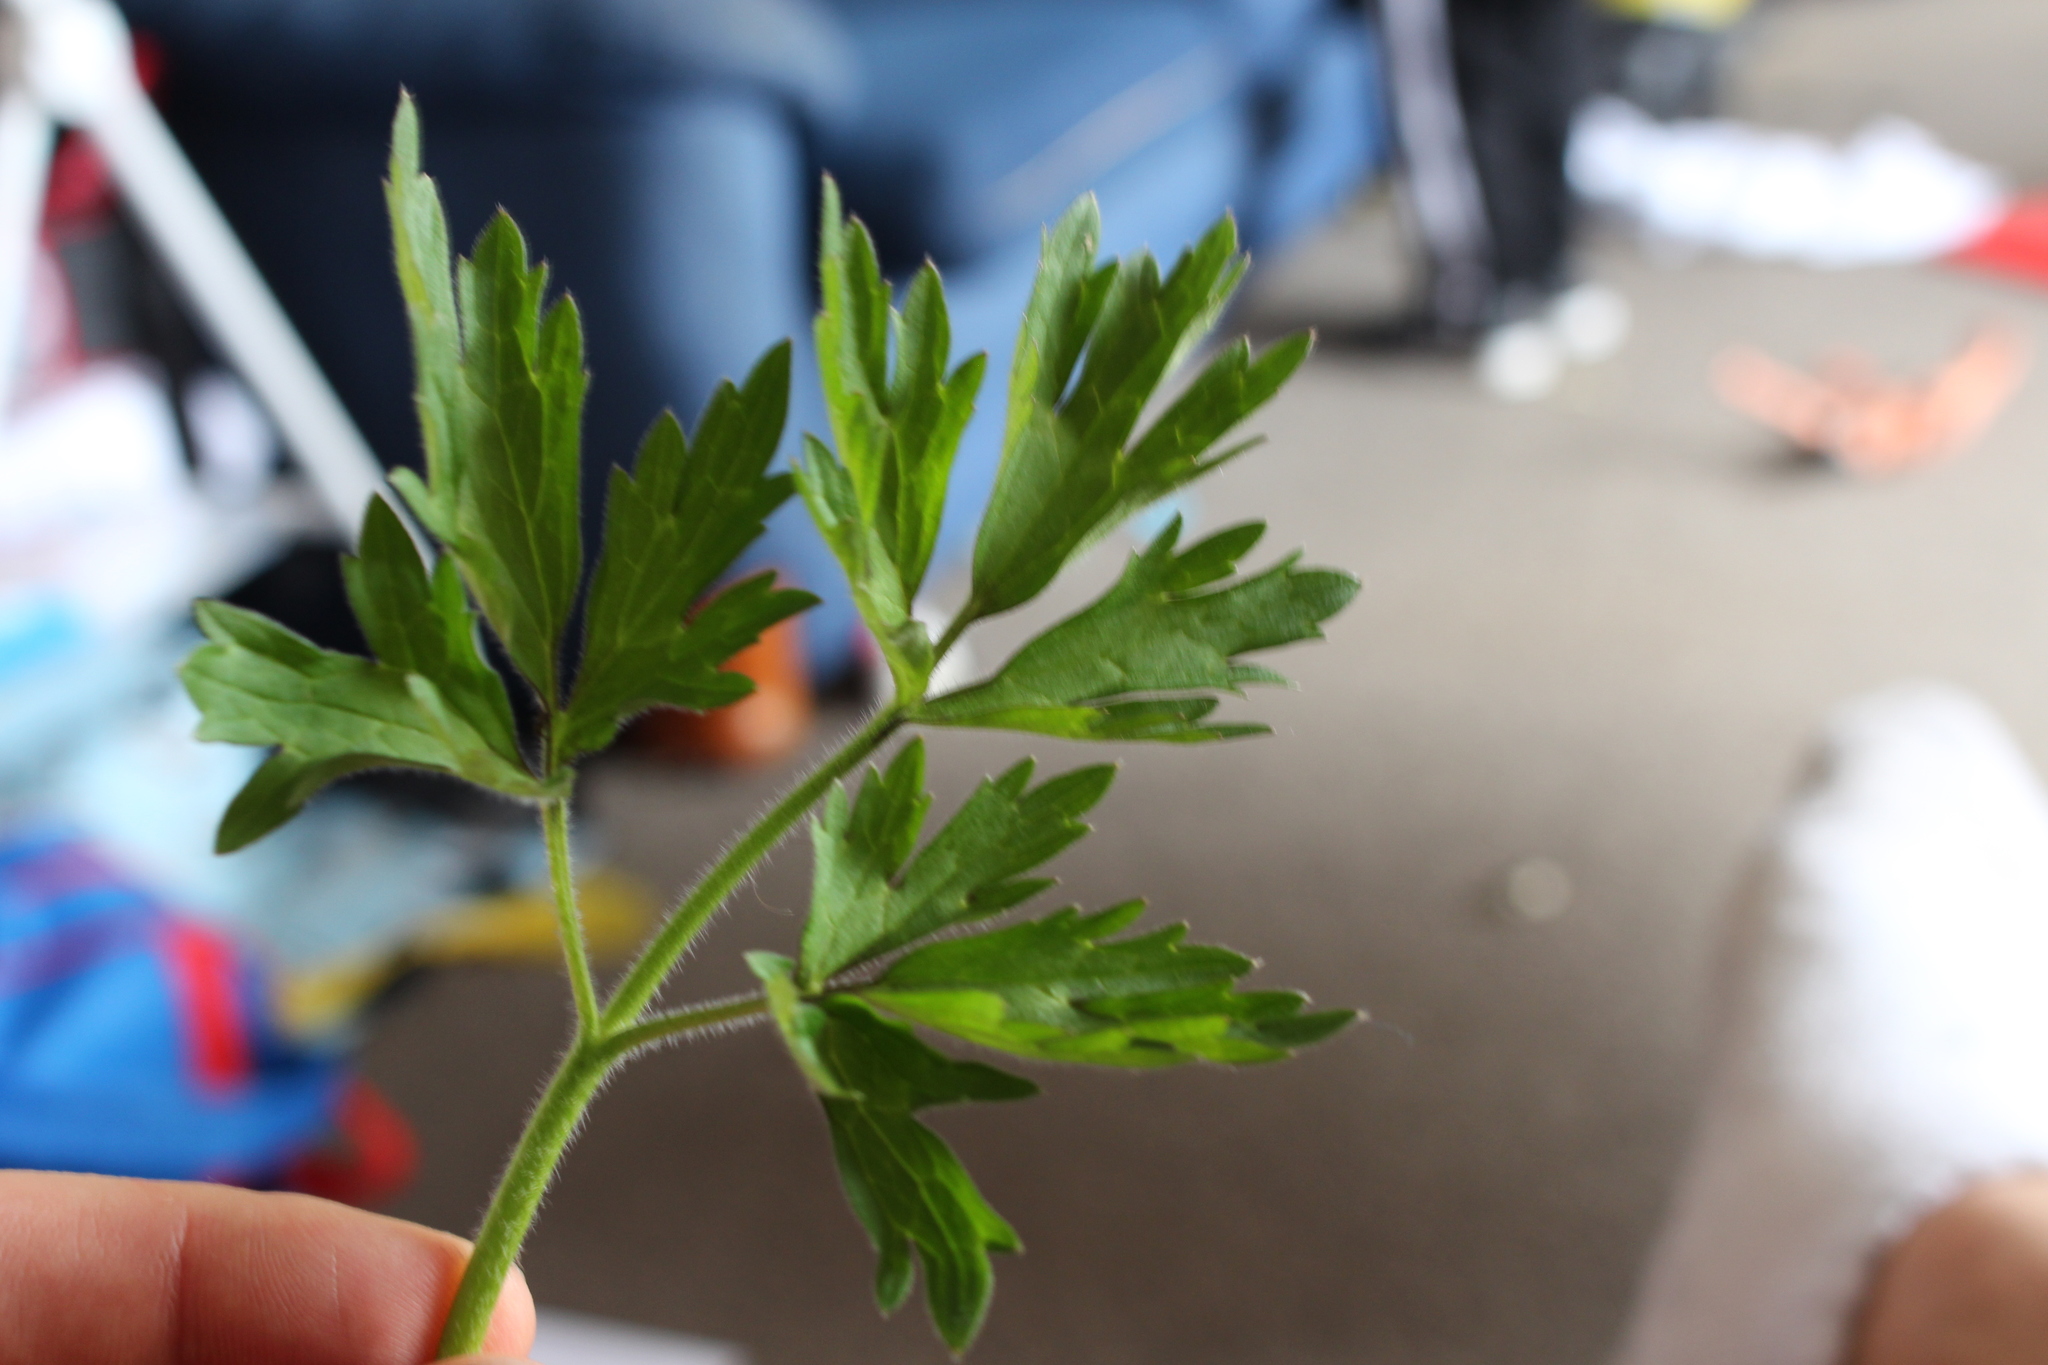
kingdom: Plantae
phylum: Tracheophyta
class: Magnoliopsida
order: Ranunculales
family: Ranunculaceae
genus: Ranunculus
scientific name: Ranunculus repens
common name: Creeping buttercup
